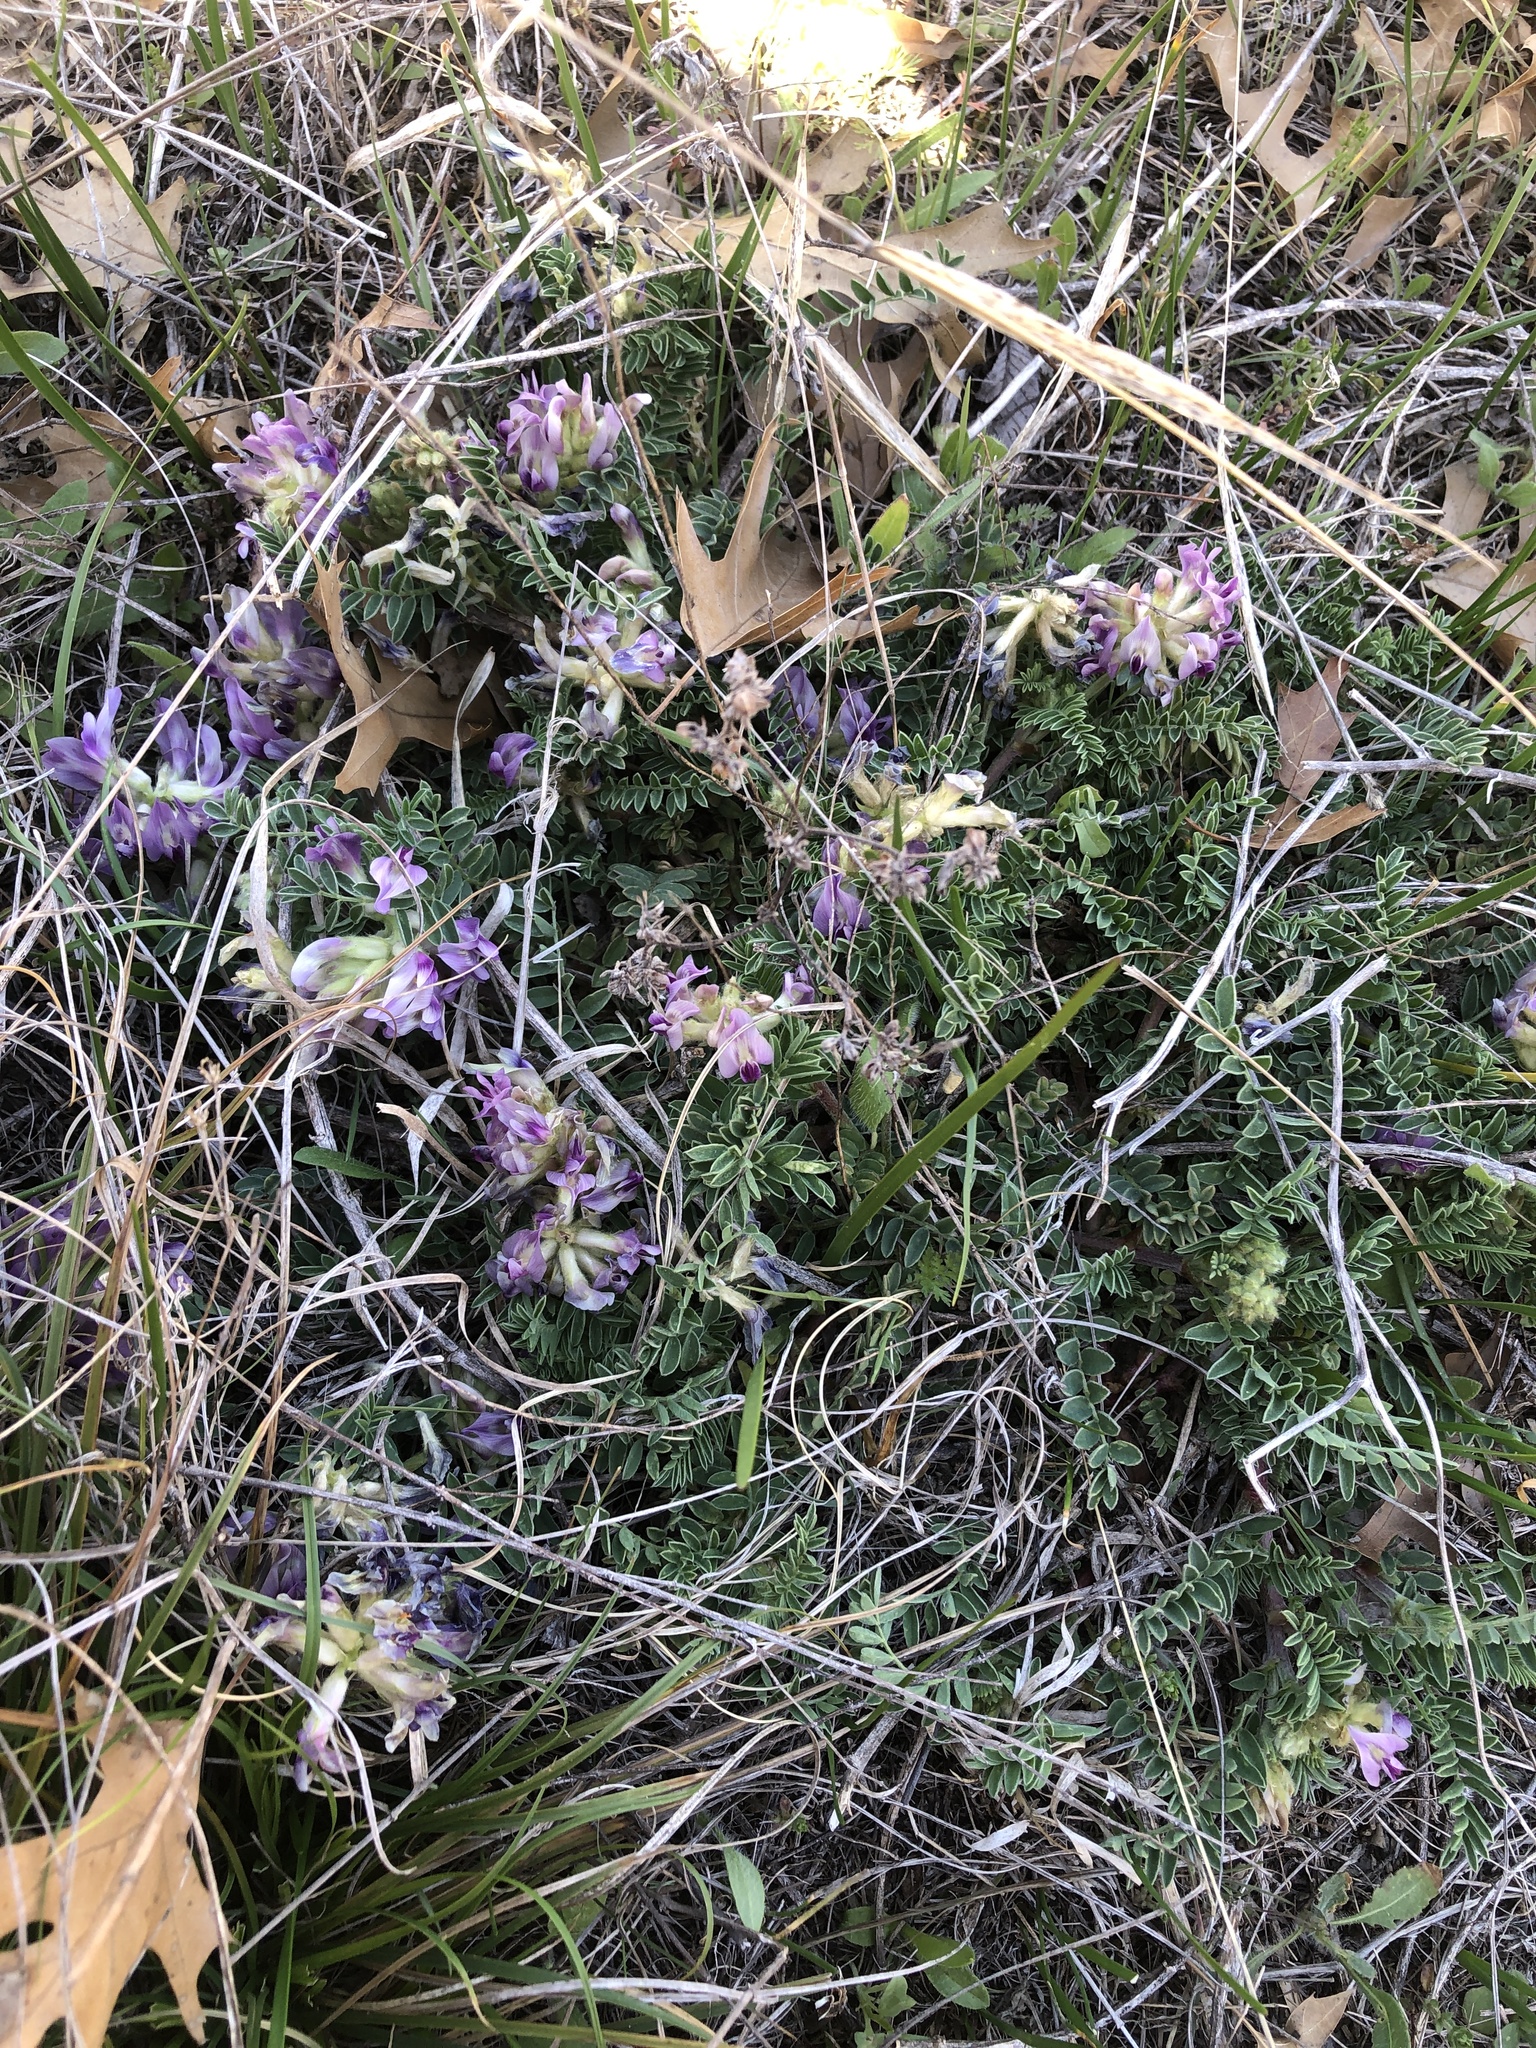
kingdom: Plantae
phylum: Tracheophyta
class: Magnoliopsida
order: Fabales
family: Fabaceae
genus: Astragalus
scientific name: Astragalus crassicarpus
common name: Ground-plum milk-vetch
